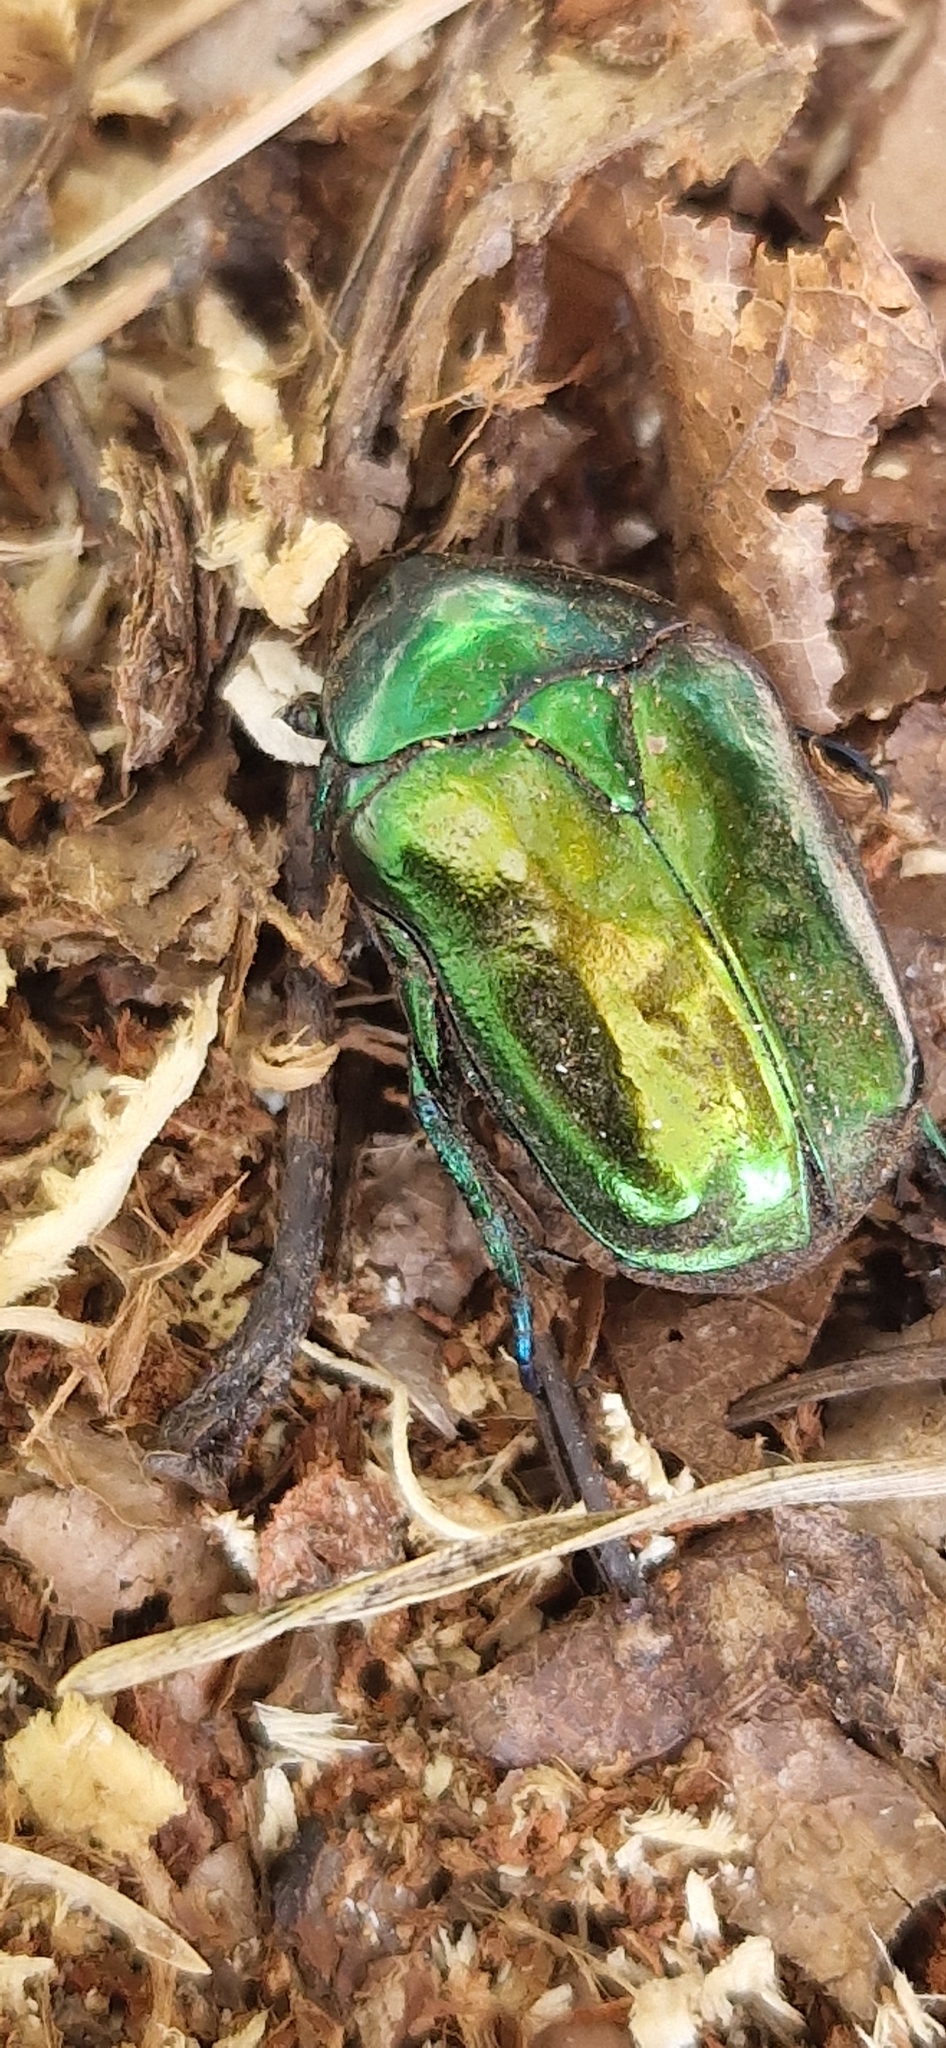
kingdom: Animalia
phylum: Arthropoda
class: Insecta
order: Coleoptera
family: Scarabaeidae
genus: Protaetia
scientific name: Protaetia speciosissima
